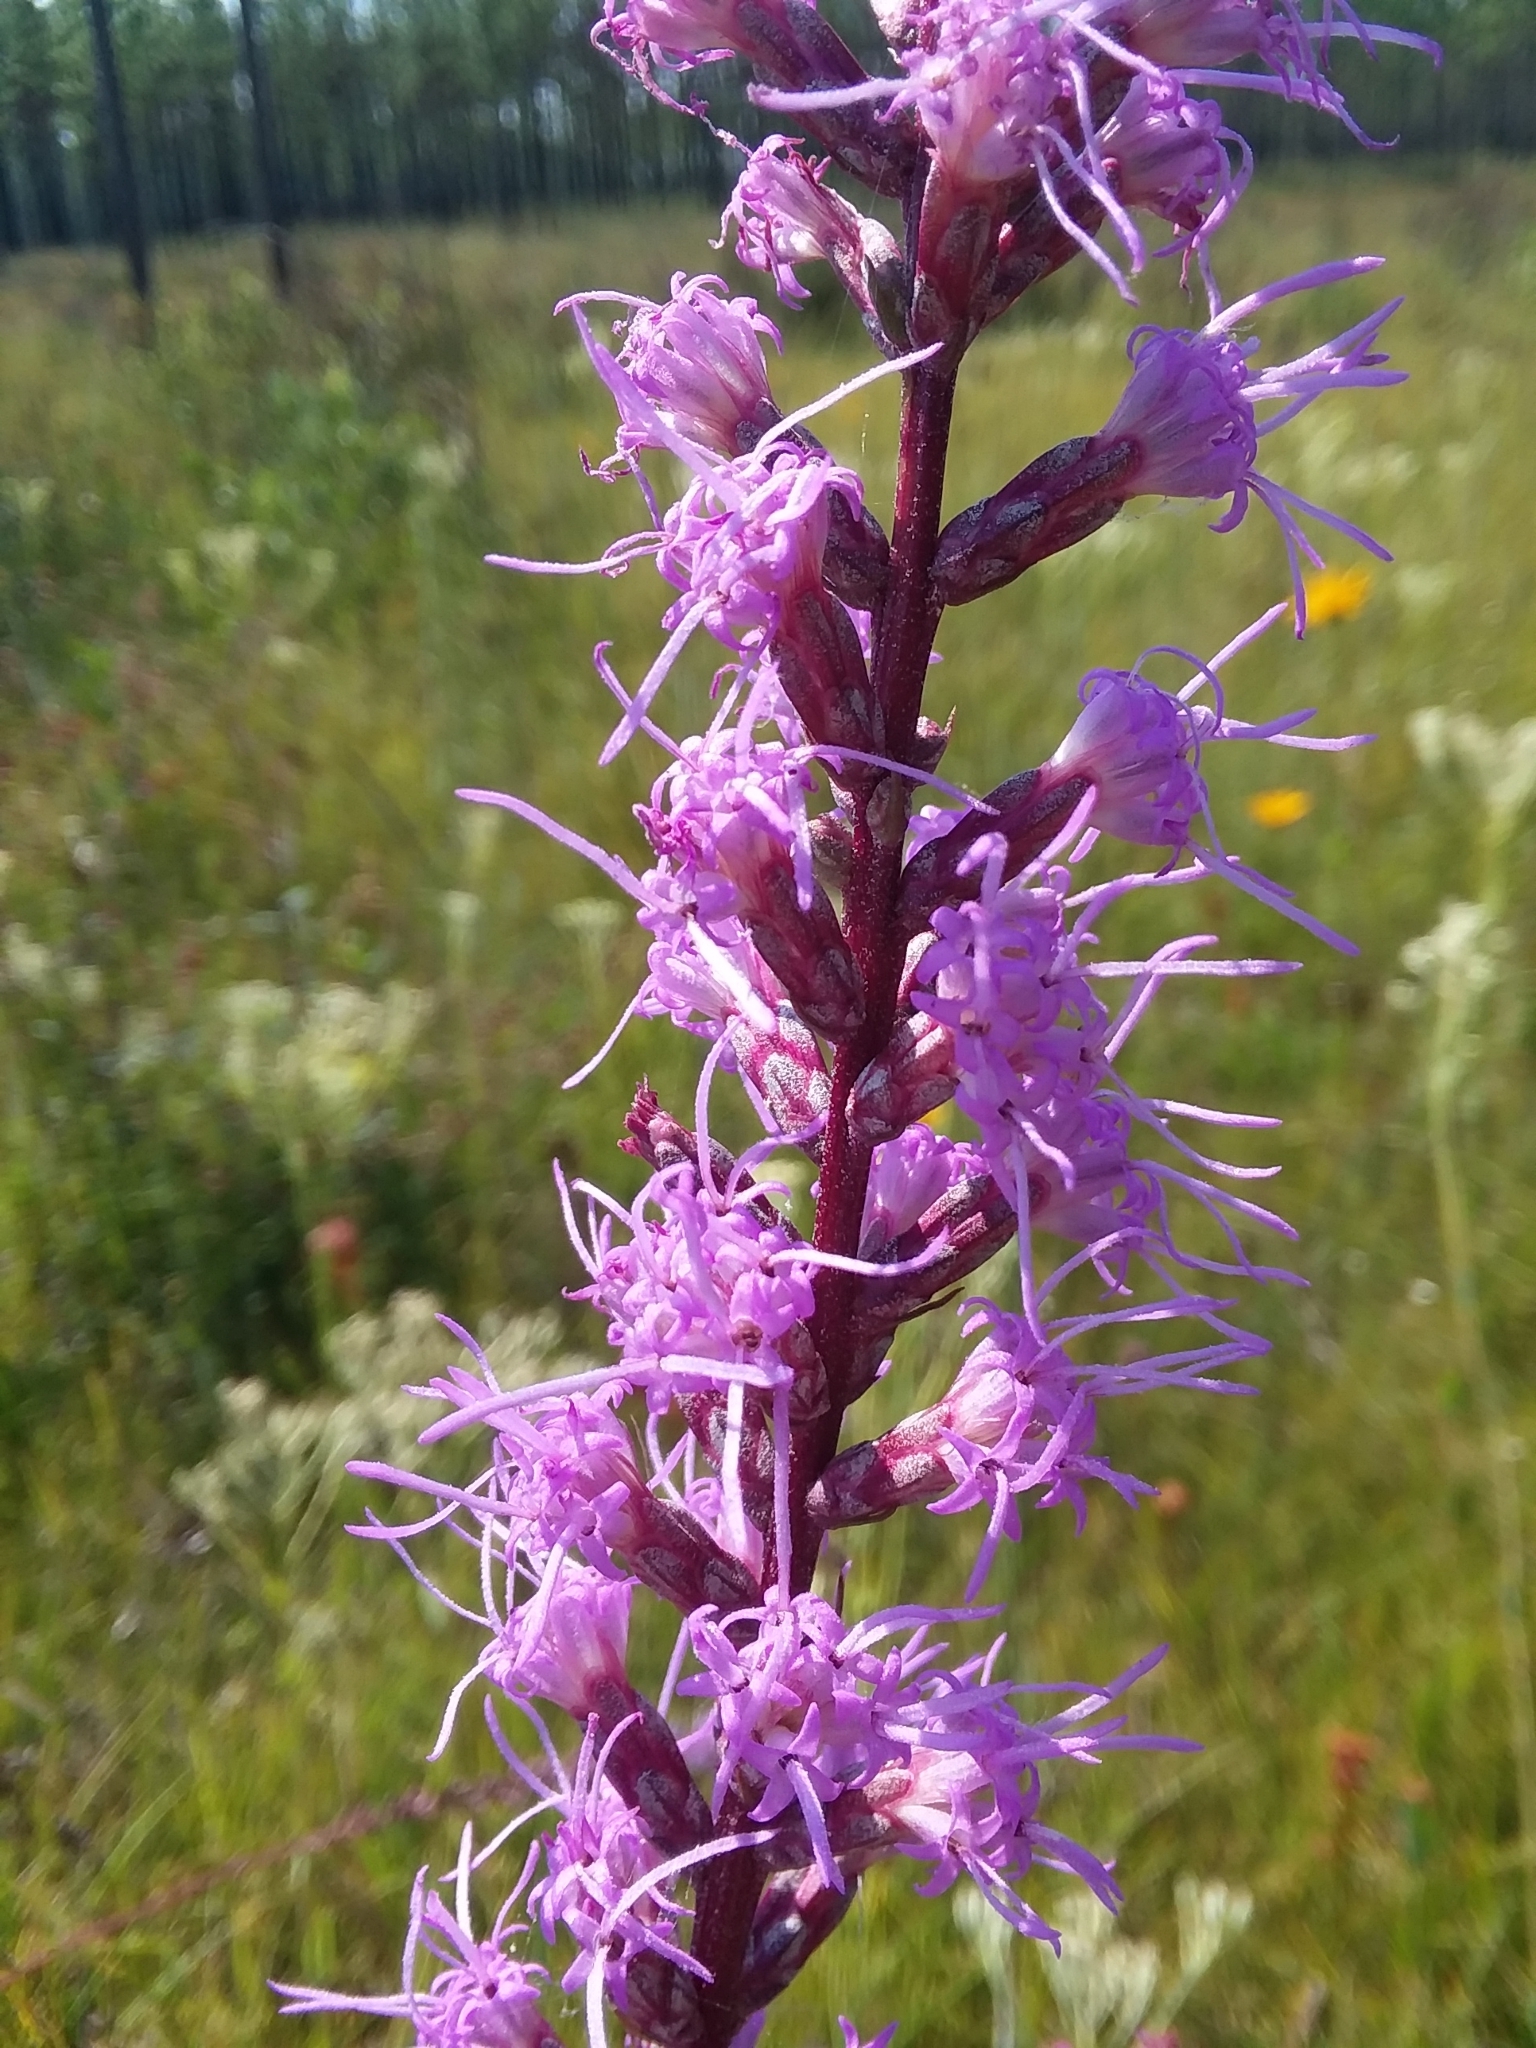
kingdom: Plantae
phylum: Tracheophyta
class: Magnoliopsida
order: Asterales
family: Asteraceae
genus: Liatris
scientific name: Liatris spicata
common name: Florist gayfeather
